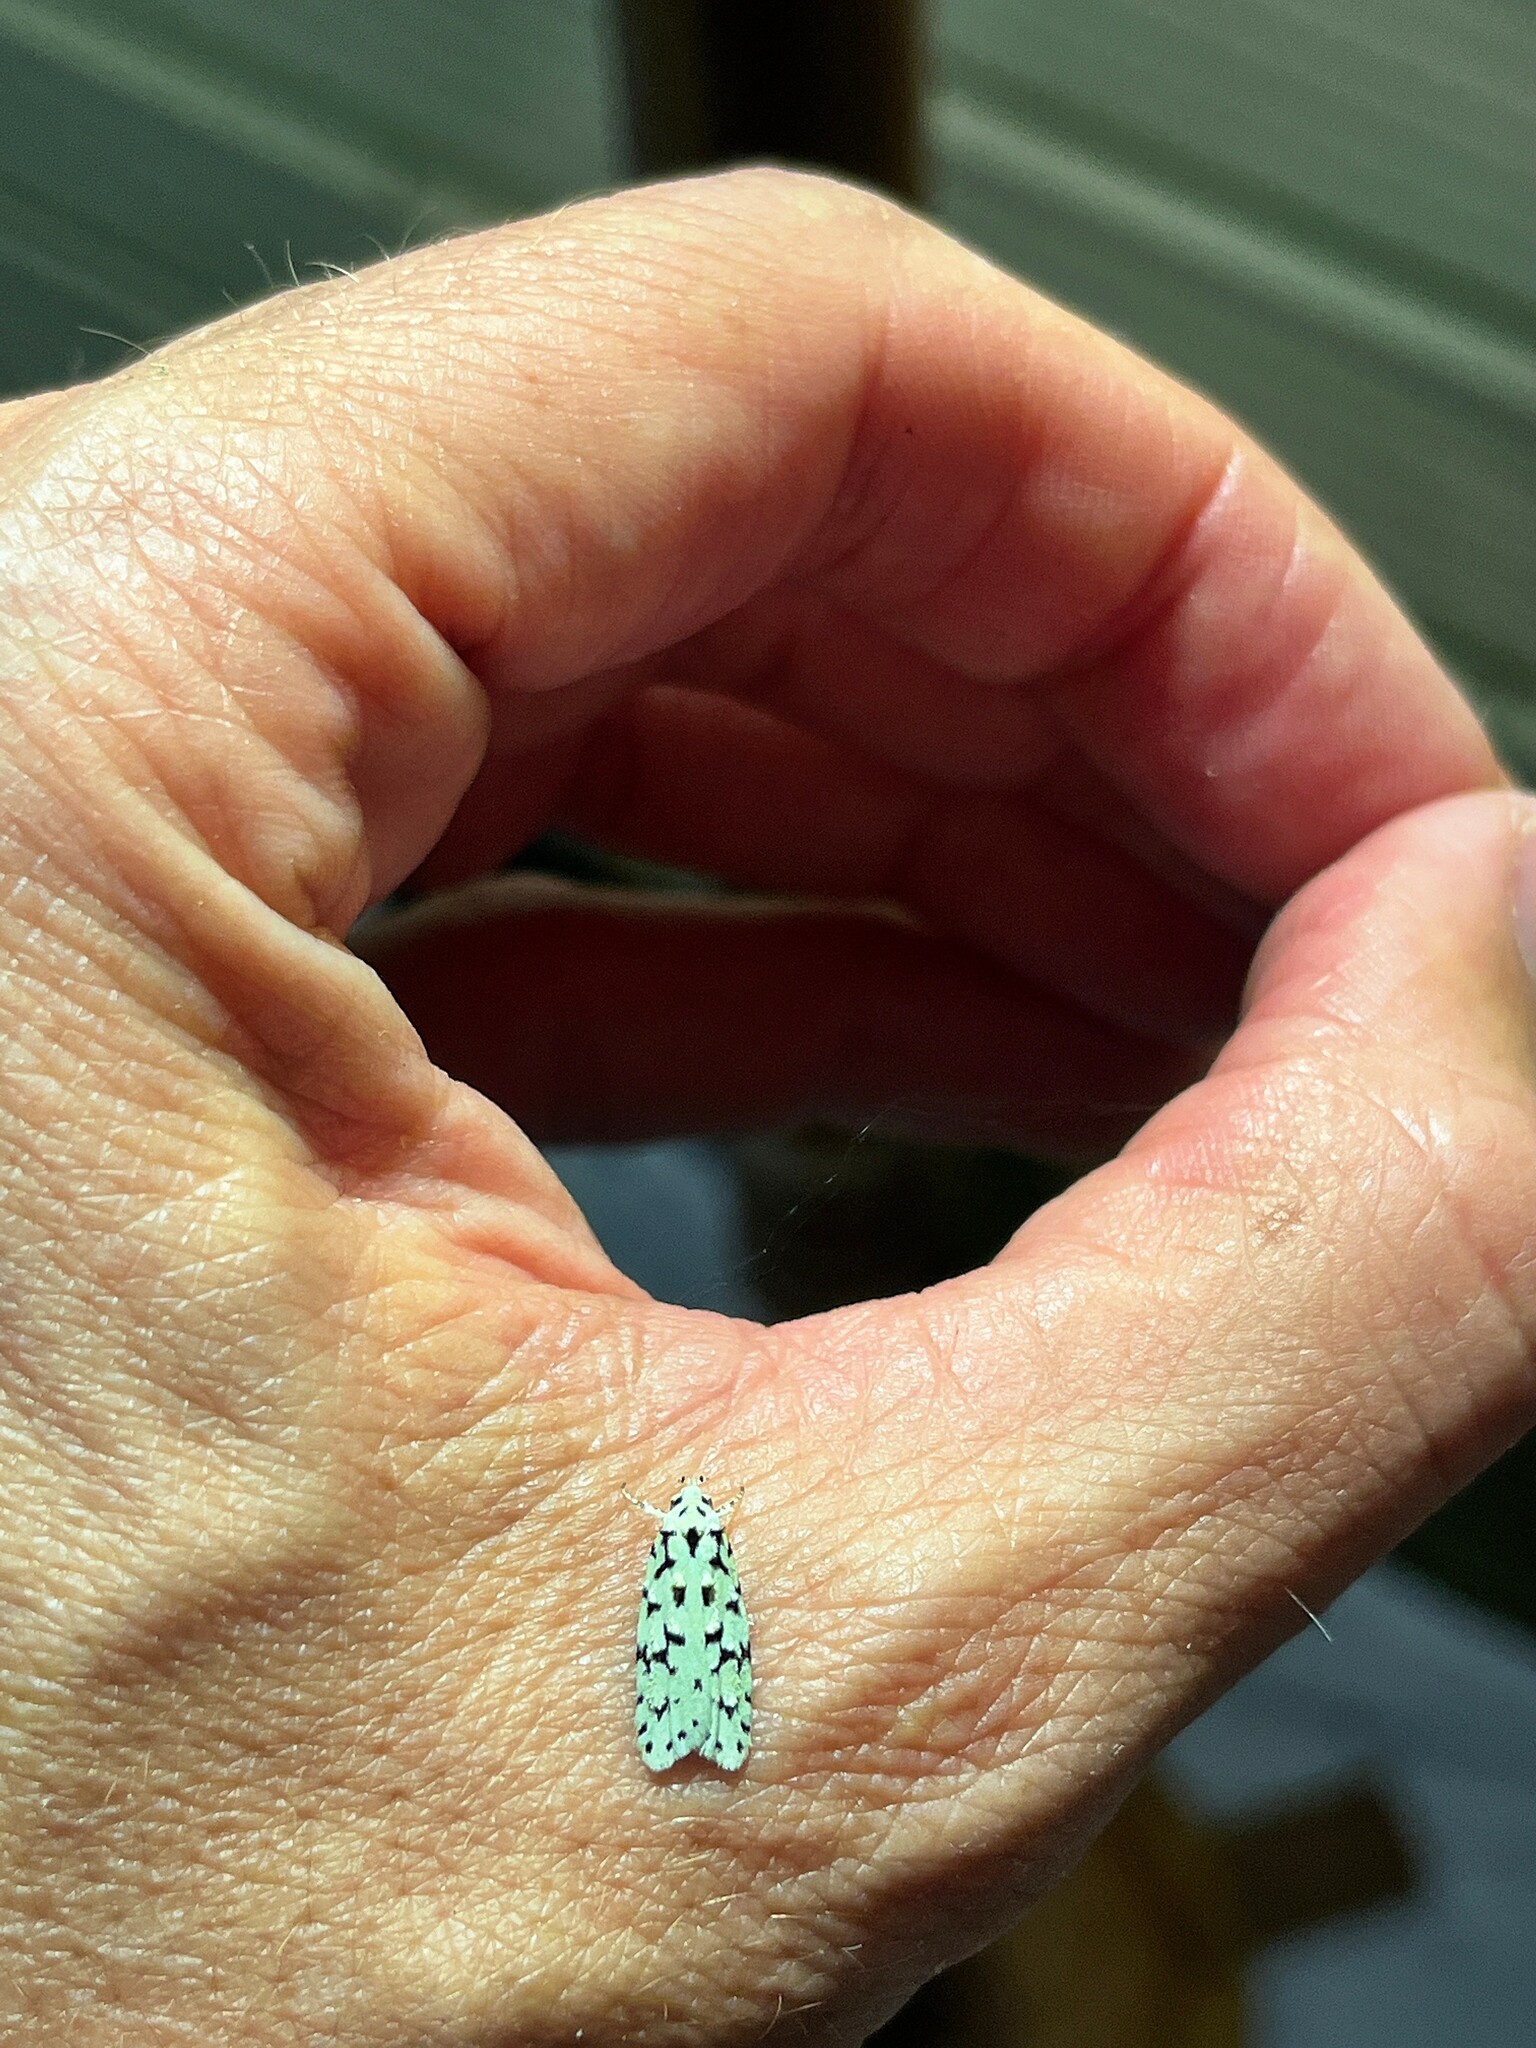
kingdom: Animalia
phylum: Arthropoda
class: Insecta
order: Lepidoptera
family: Oecophoridae
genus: Izatha
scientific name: Izatha huttoni
